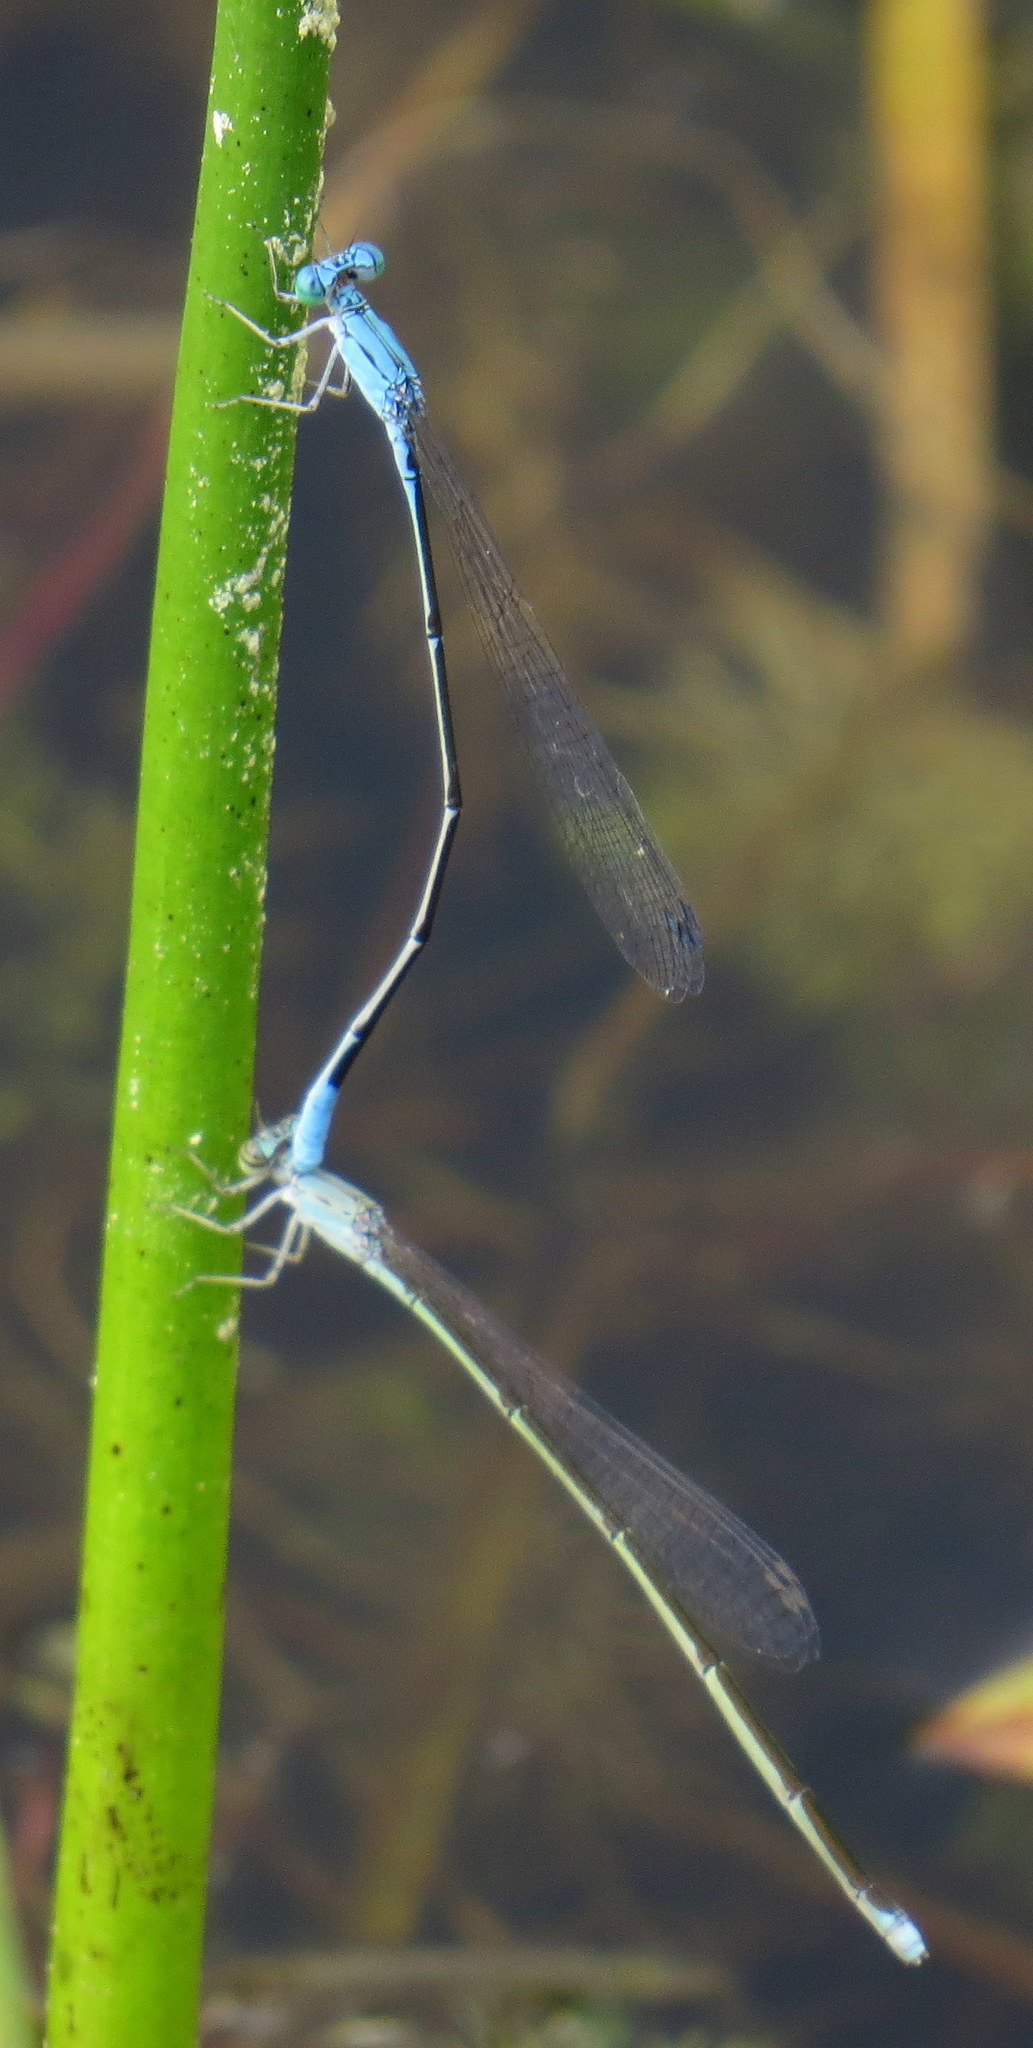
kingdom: Animalia
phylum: Arthropoda
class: Insecta
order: Odonata
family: Coenagrionidae
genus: Enallagma
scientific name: Enallagma daeckii
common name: Attenuated bluet
